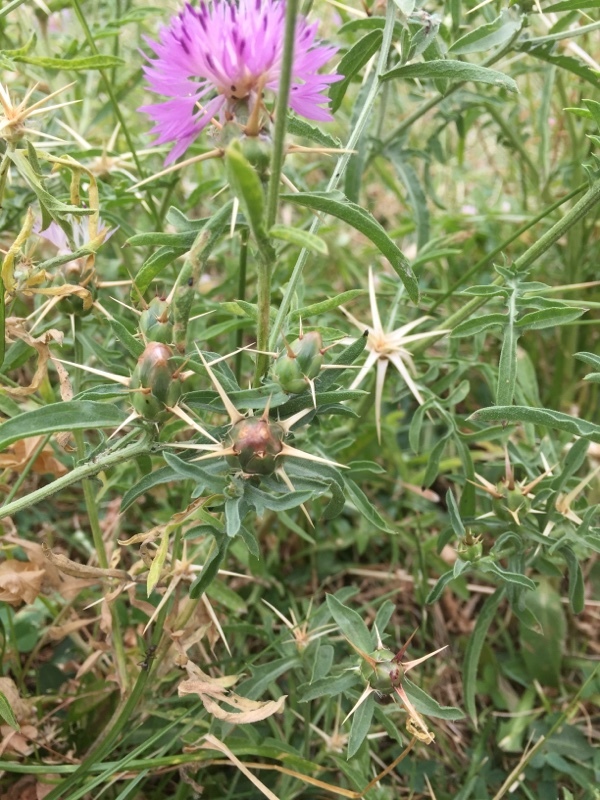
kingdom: Plantae
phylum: Tracheophyta
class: Magnoliopsida
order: Asterales
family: Asteraceae
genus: Centaurea
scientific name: Centaurea iberica
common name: Iberian knapweed
